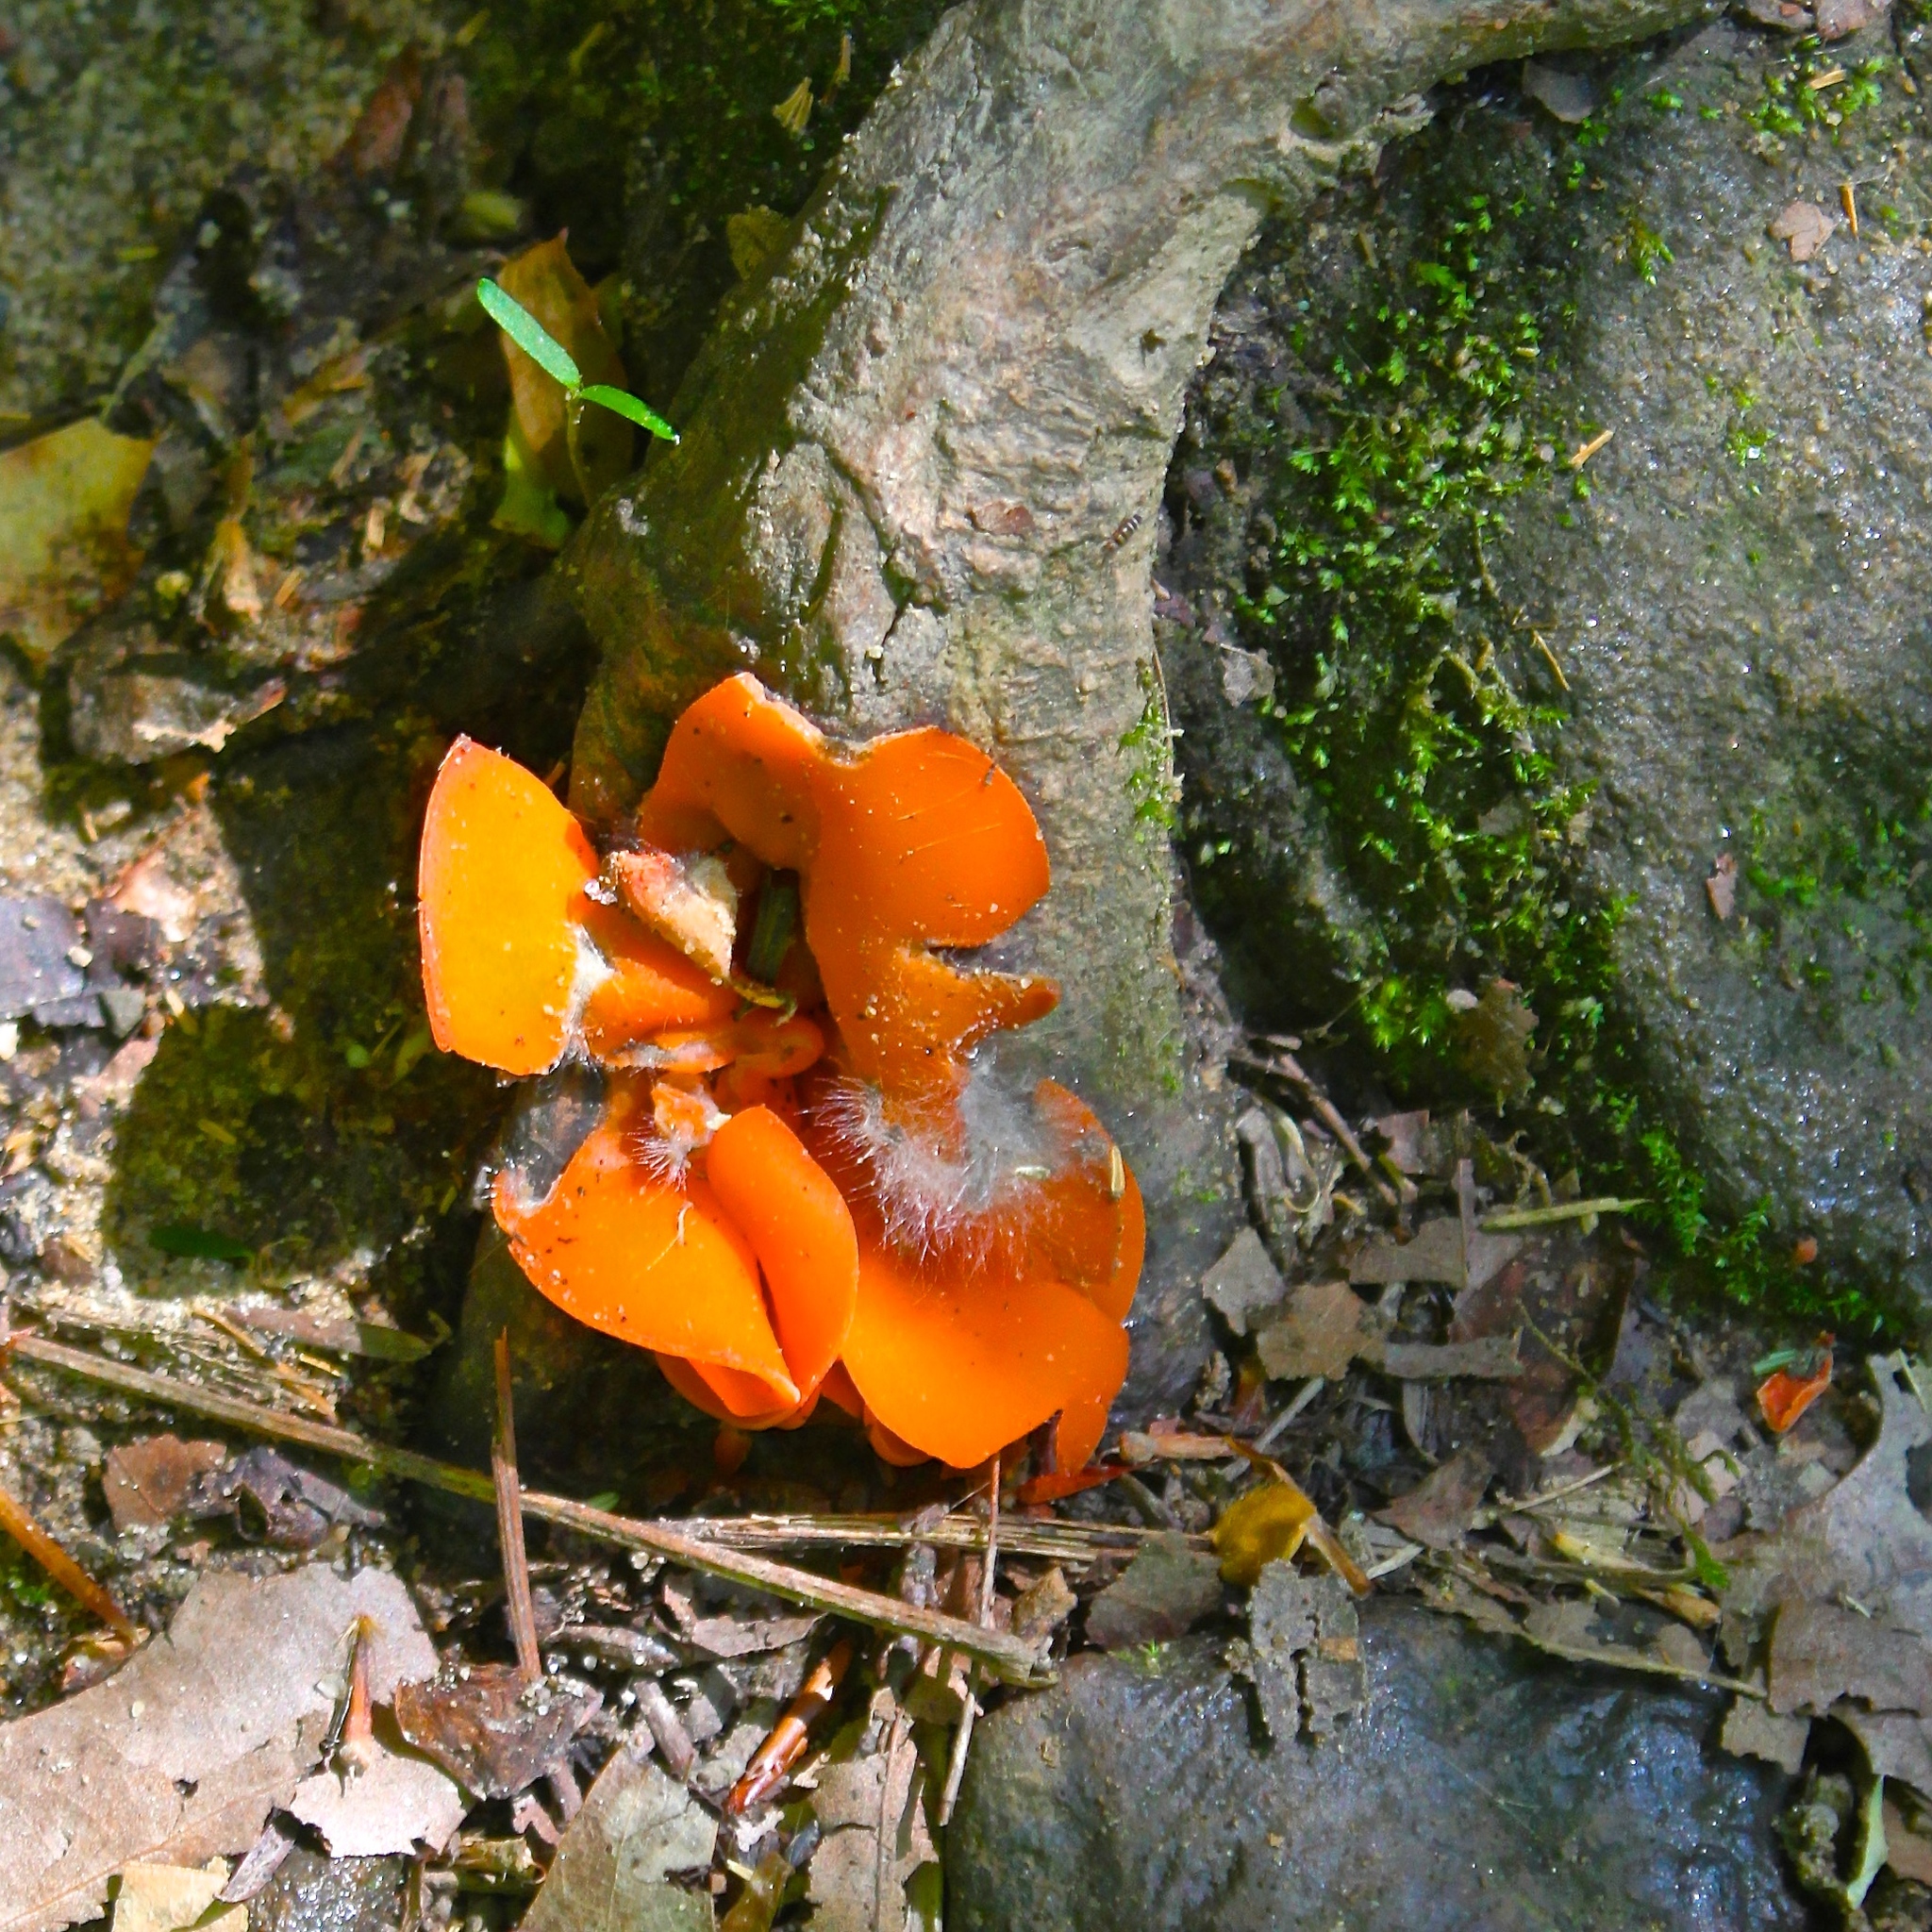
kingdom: Fungi
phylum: Ascomycota
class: Pezizomycetes
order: Pezizales
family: Pyronemataceae
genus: Aleuria
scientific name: Aleuria aurantia
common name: Orange peel fungus
